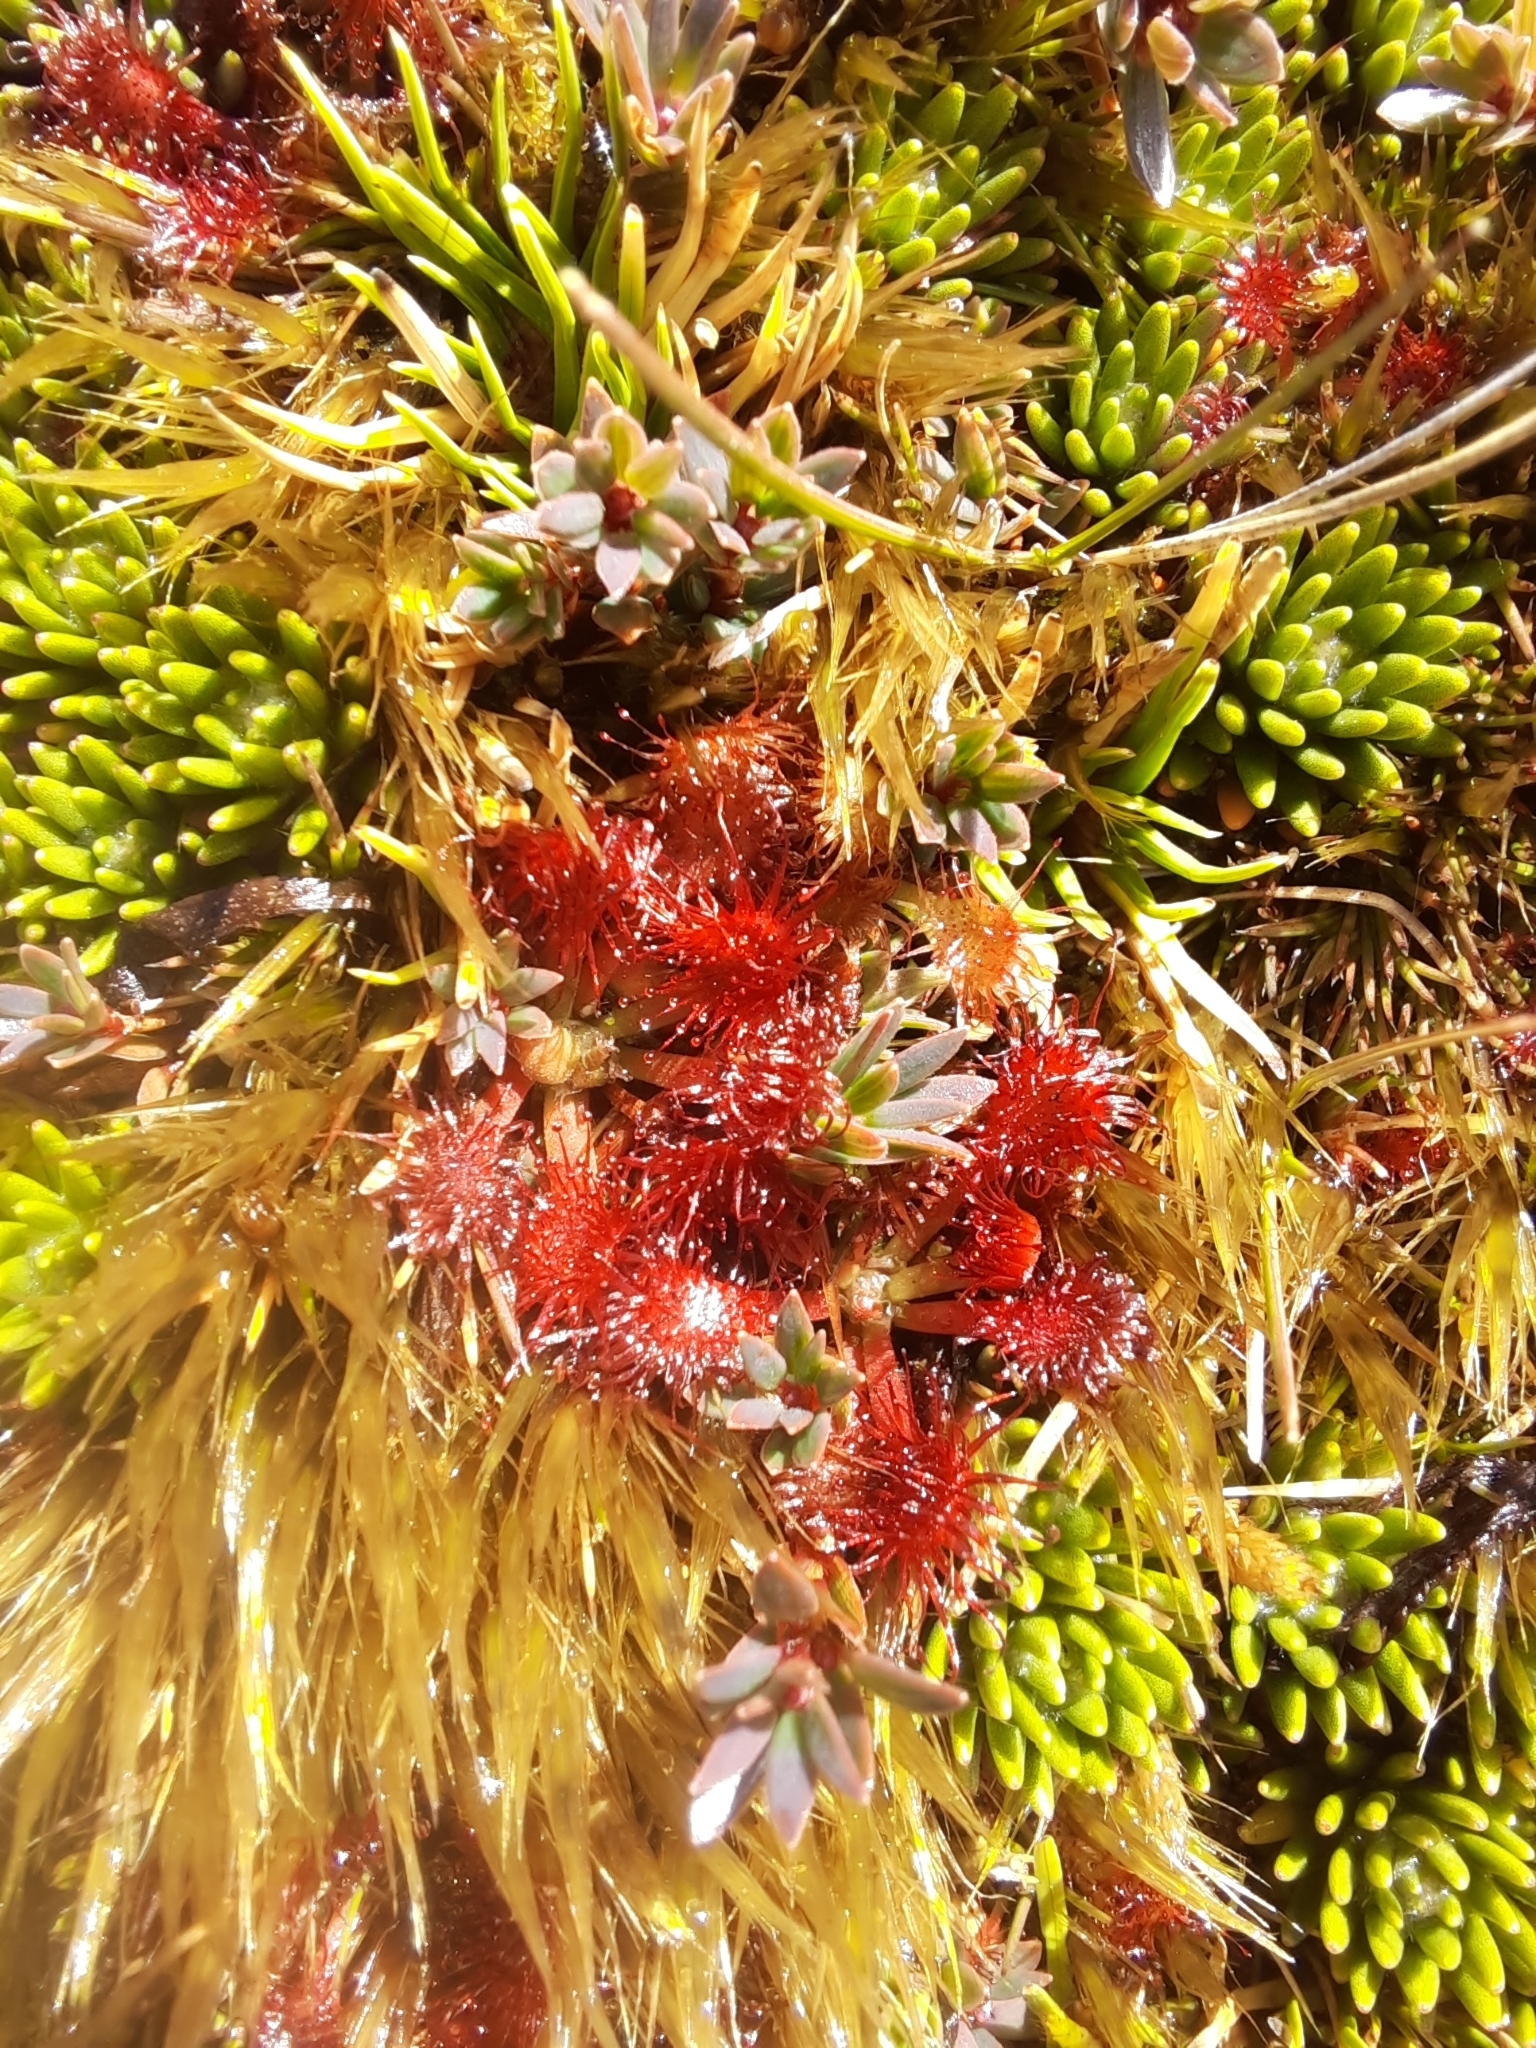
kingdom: Plantae
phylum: Tracheophyta
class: Magnoliopsida
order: Caryophyllales
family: Droseraceae
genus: Drosera
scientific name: Drosera spatulata
